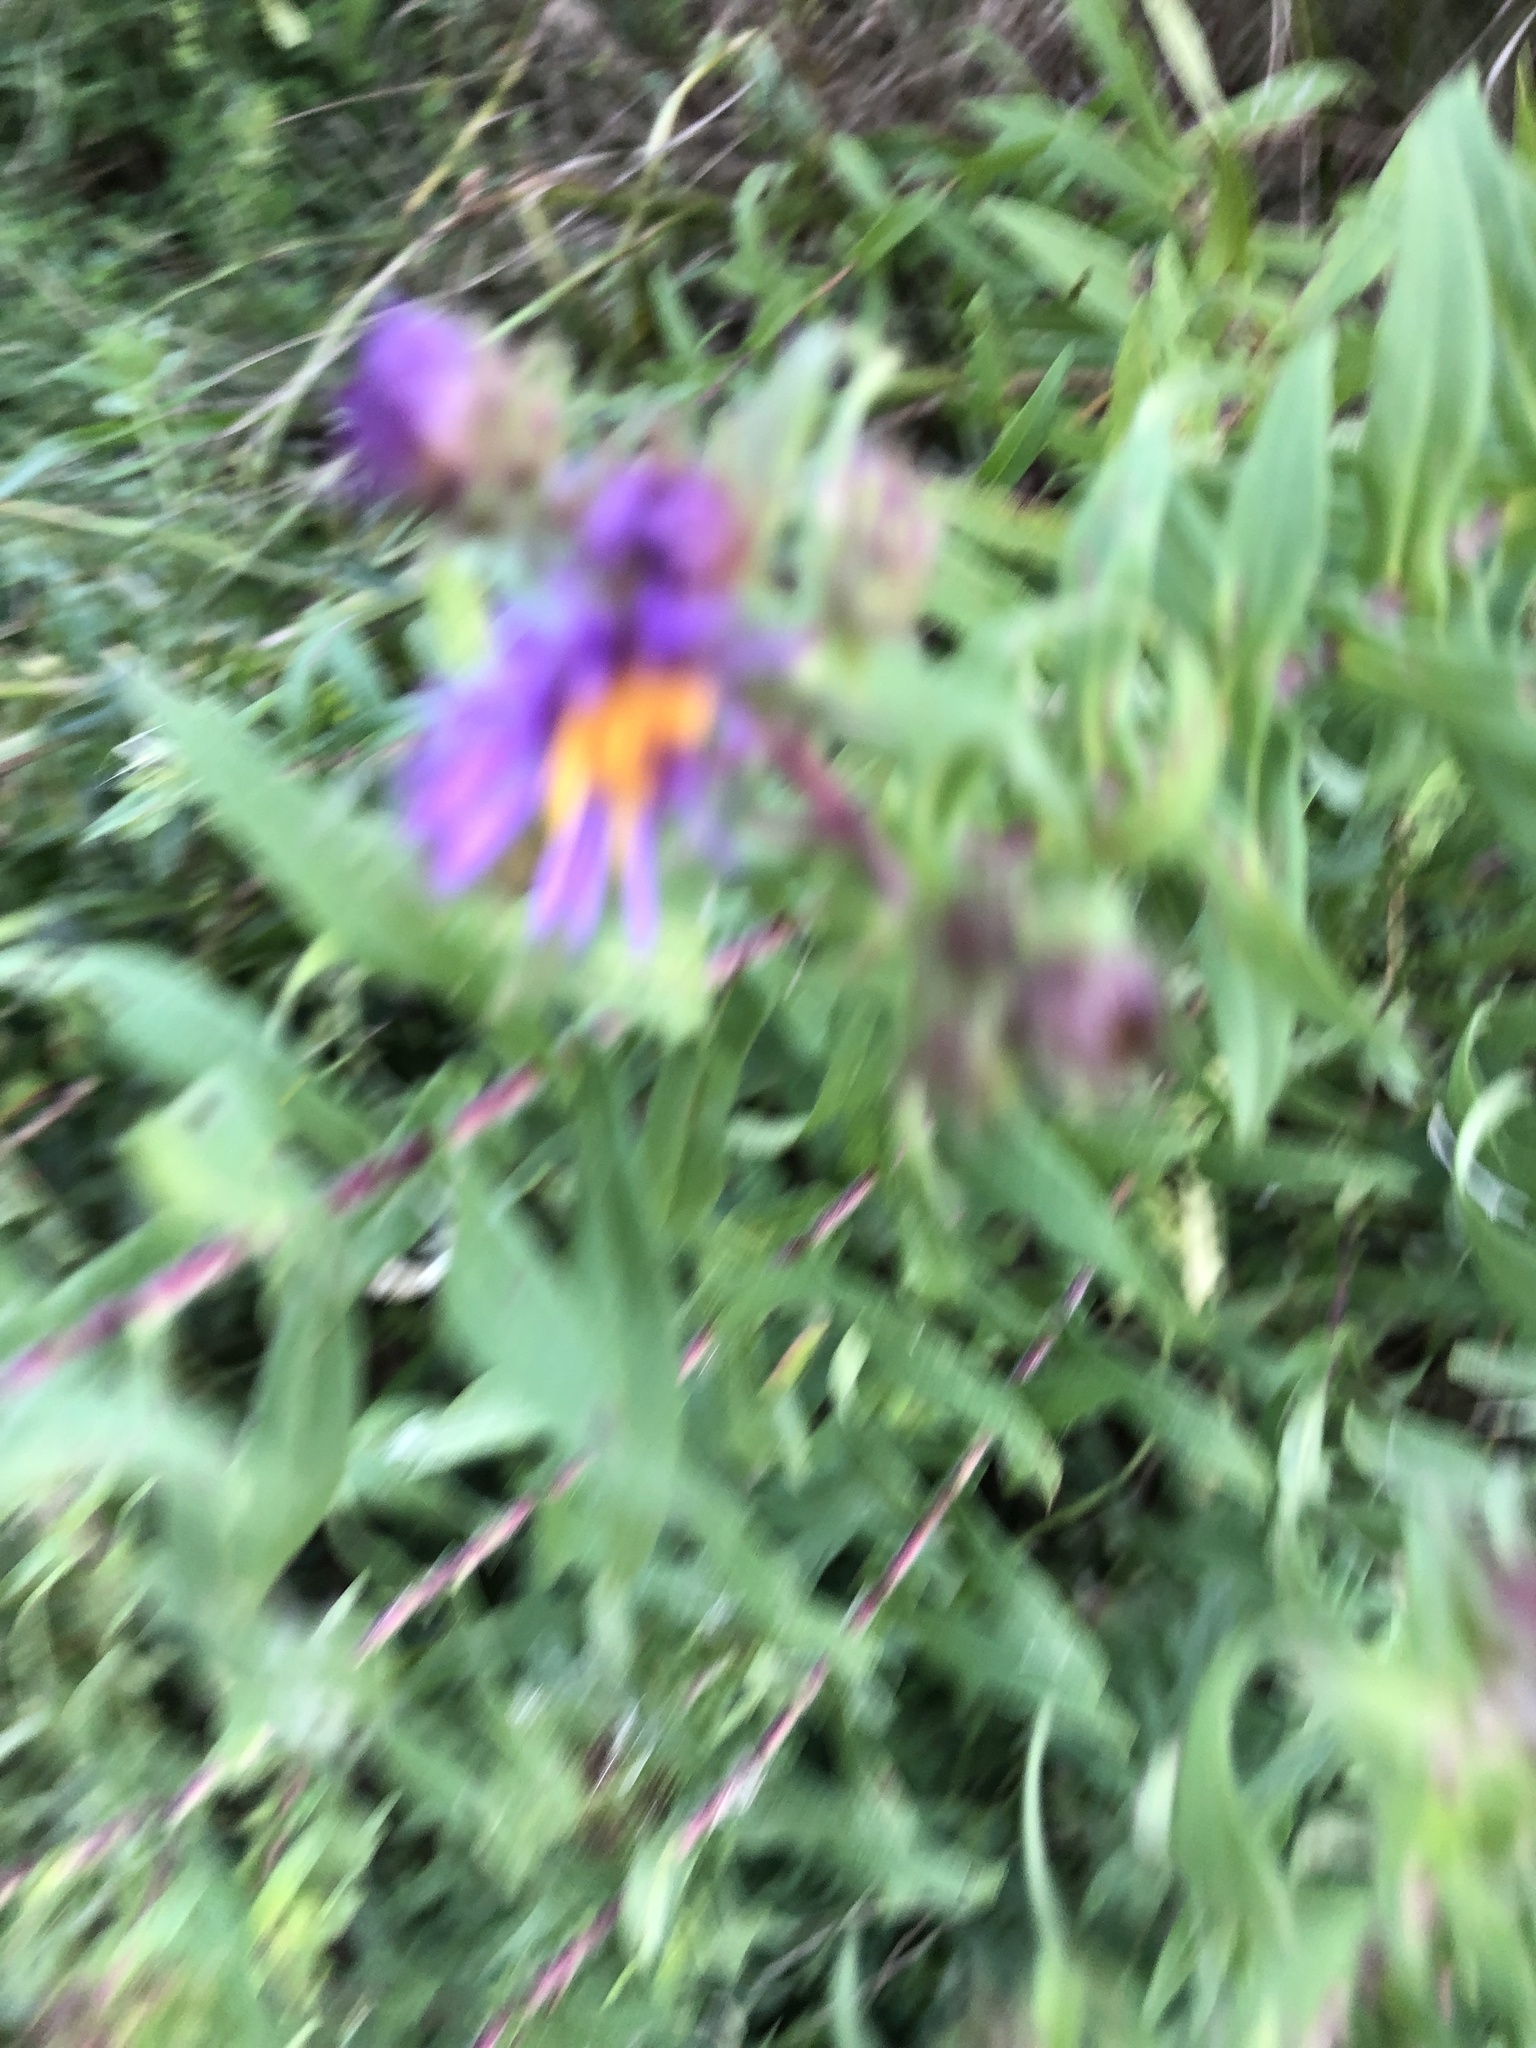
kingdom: Plantae
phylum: Tracheophyta
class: Magnoliopsida
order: Asterales
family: Asteraceae
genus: Symphyotrichum
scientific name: Symphyotrichum novae-angliae
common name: Michaelmas daisy
